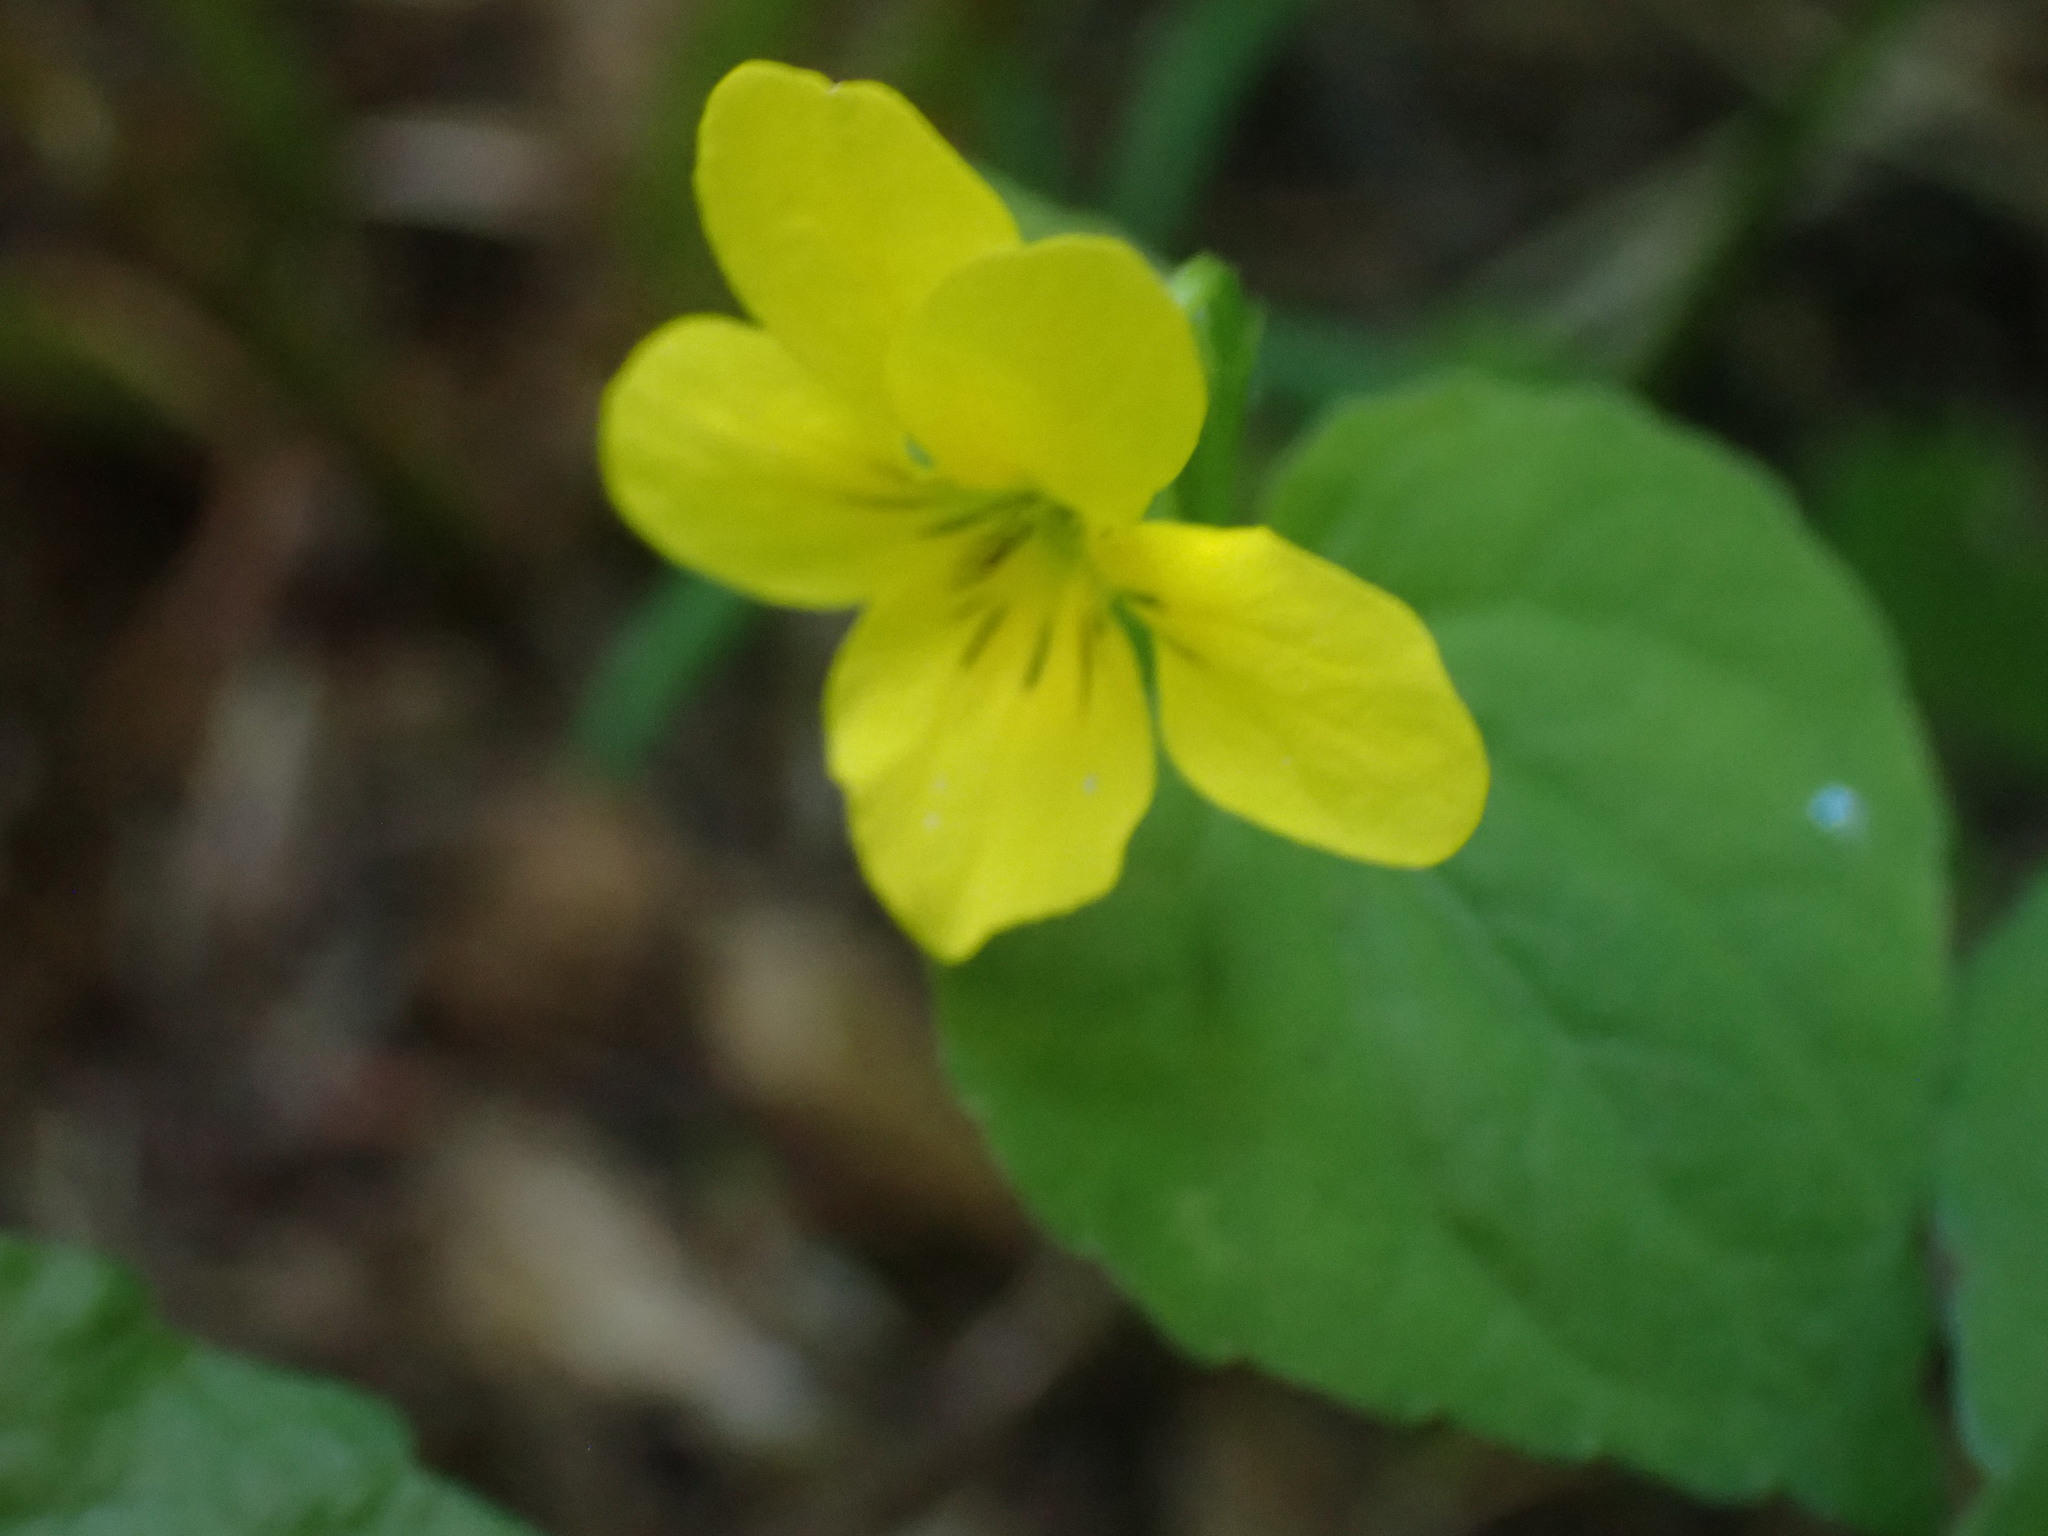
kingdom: Plantae
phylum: Tracheophyta
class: Magnoliopsida
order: Malpighiales
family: Violaceae
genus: Viola
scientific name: Viola glabella
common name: Stream violet
